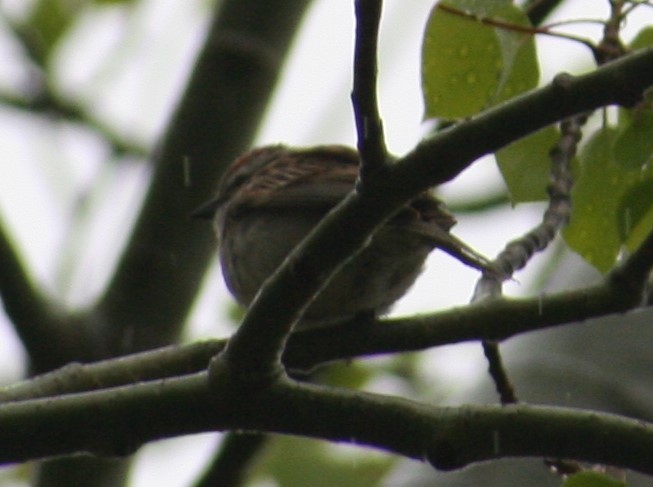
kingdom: Animalia
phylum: Chordata
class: Aves
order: Passeriformes
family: Passerellidae
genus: Spizella
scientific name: Spizella passerina
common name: Chipping sparrow
